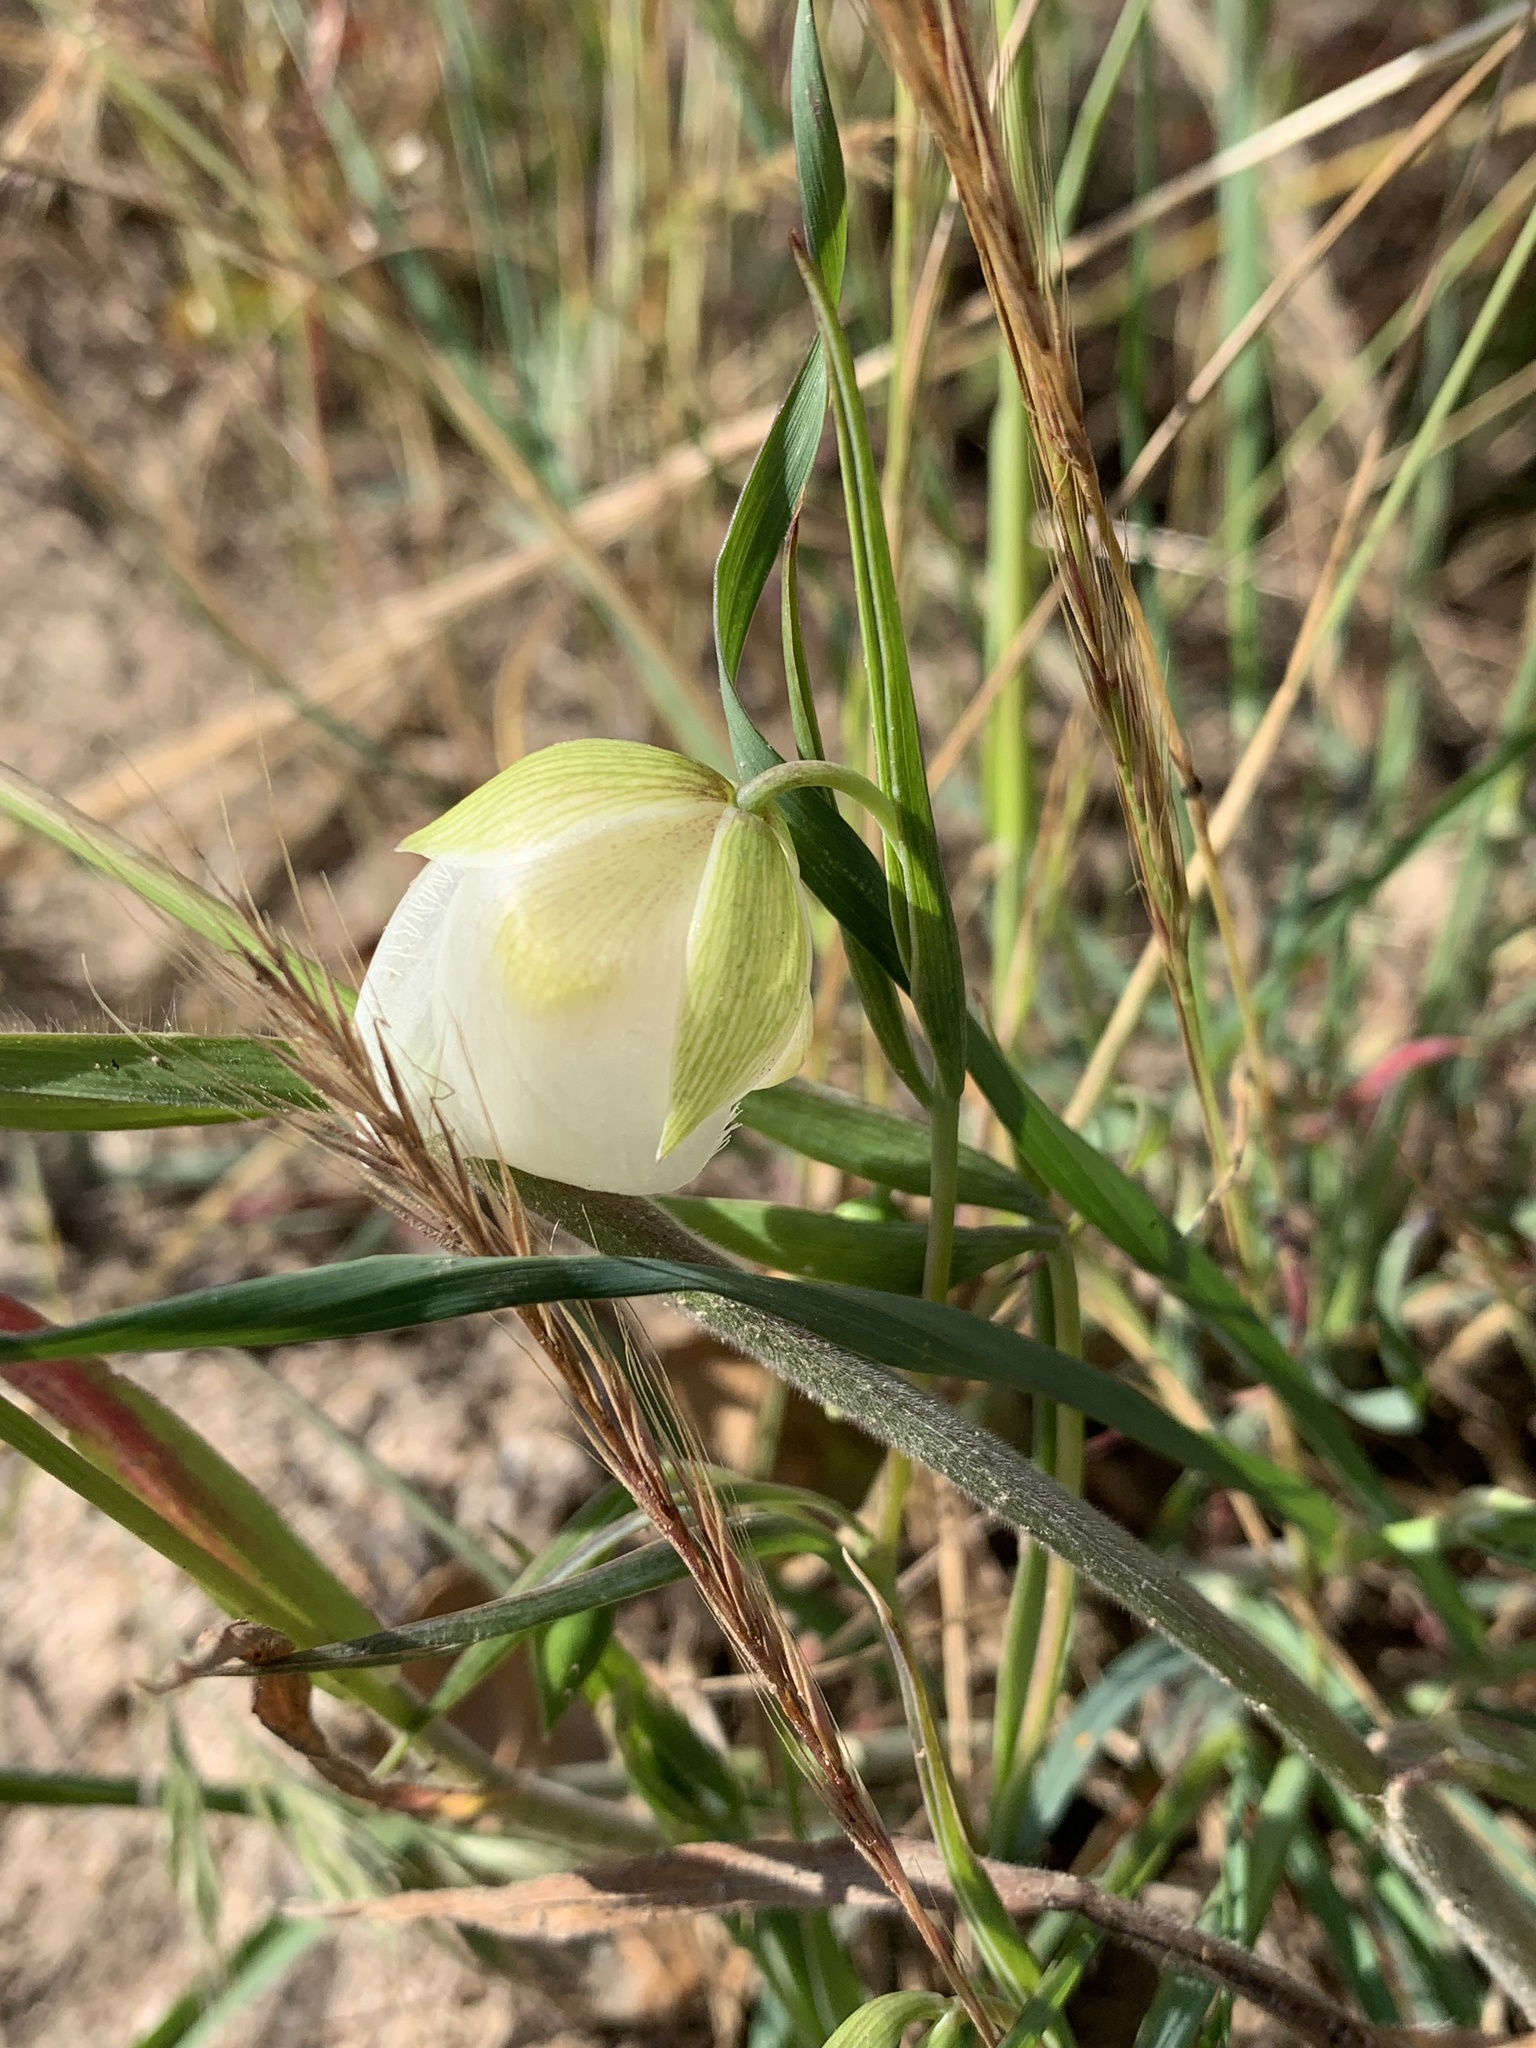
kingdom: Plantae
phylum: Tracheophyta
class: Liliopsida
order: Liliales
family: Liliaceae
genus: Calochortus
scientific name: Calochortus albus
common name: Fairy-lantern
